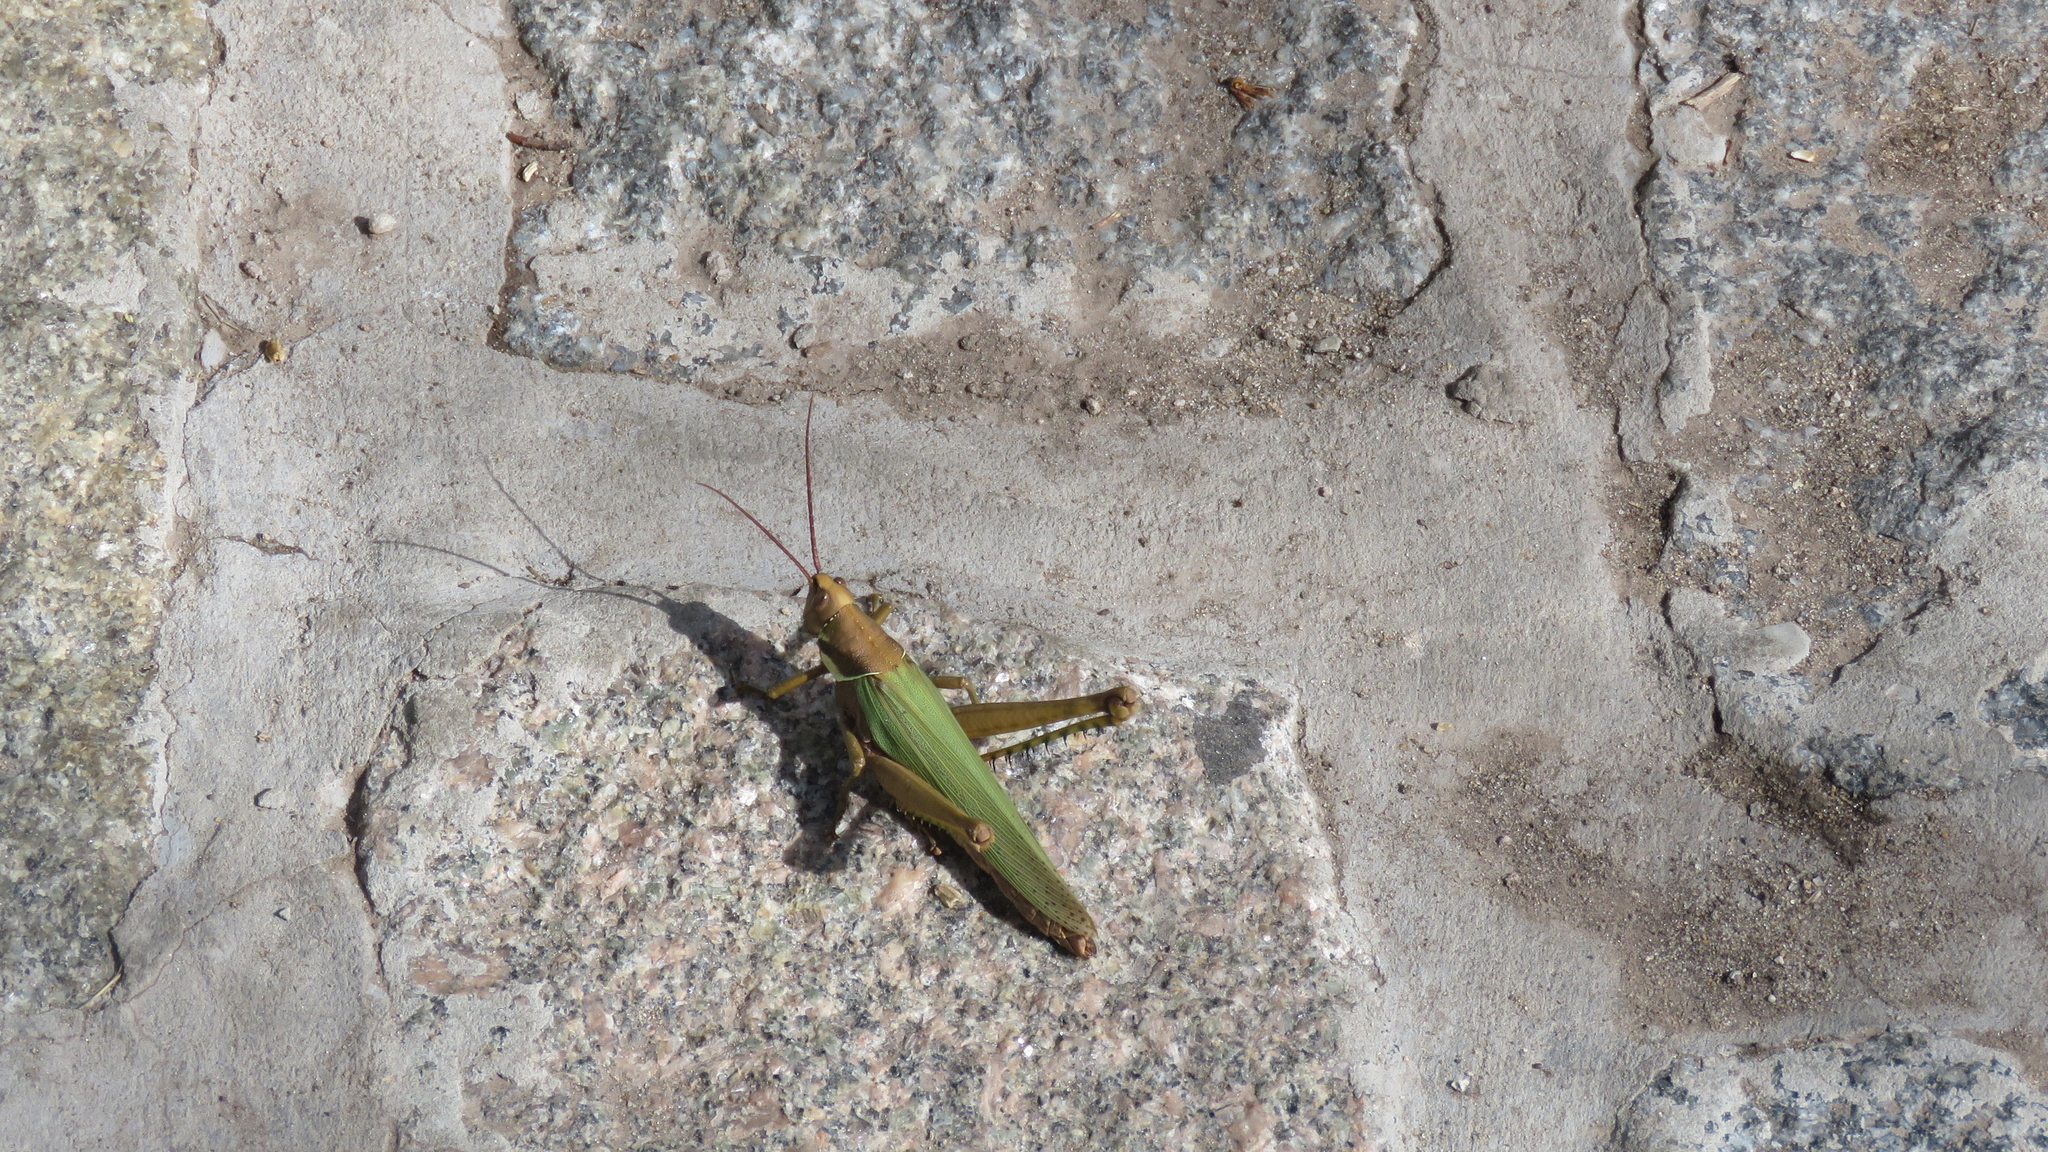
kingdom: Animalia
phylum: Arthropoda
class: Insecta
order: Orthoptera
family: Romaleidae
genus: Coryacris
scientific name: Coryacris angustipennis
